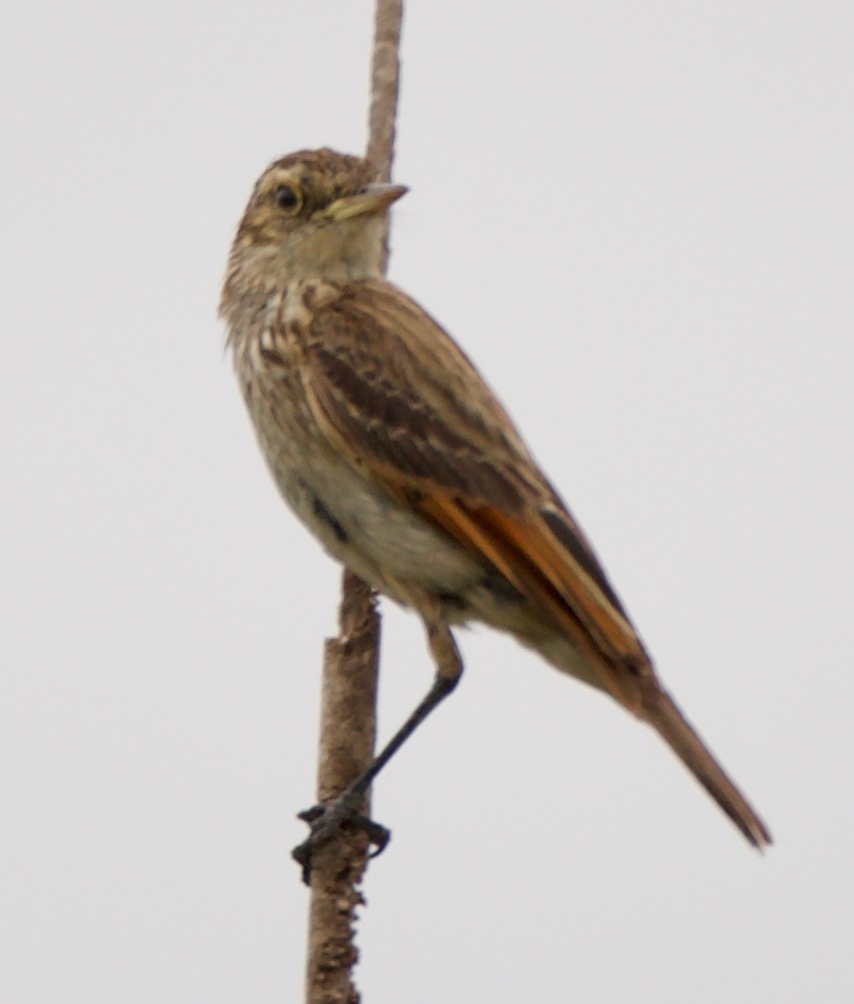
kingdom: Animalia
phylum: Chordata
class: Aves
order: Passeriformes
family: Tyrannidae
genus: Hymenops
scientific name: Hymenops perspicillatus
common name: Spectacled tyrant
